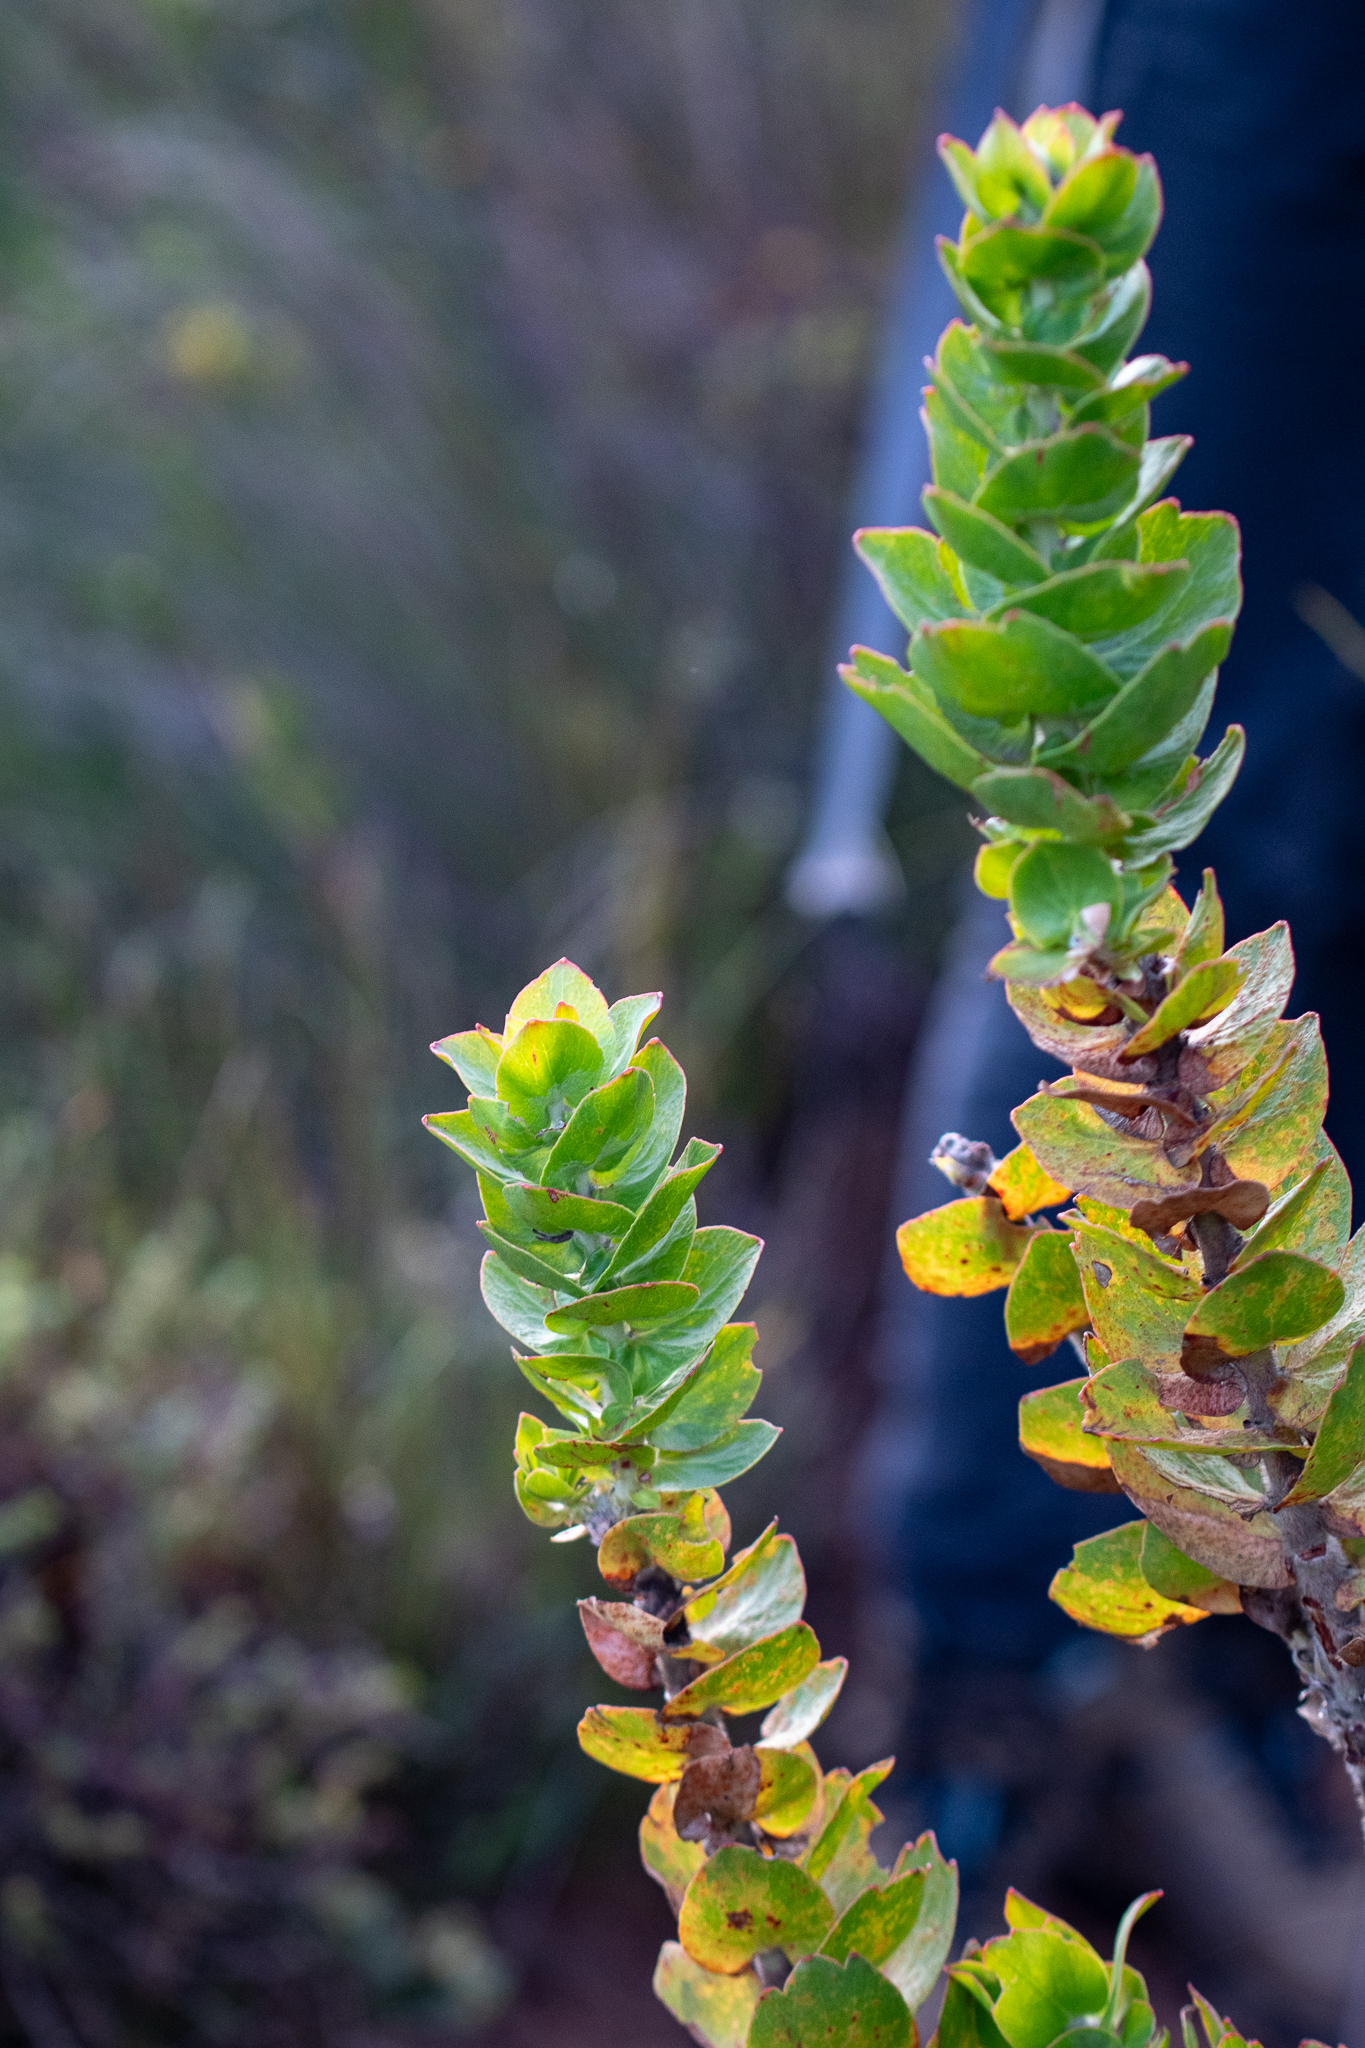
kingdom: Plantae
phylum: Tracheophyta
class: Magnoliopsida
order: Proteales
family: Proteaceae
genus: Leucospermum
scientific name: Leucospermum cordifolium
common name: Red pincushion-protea
